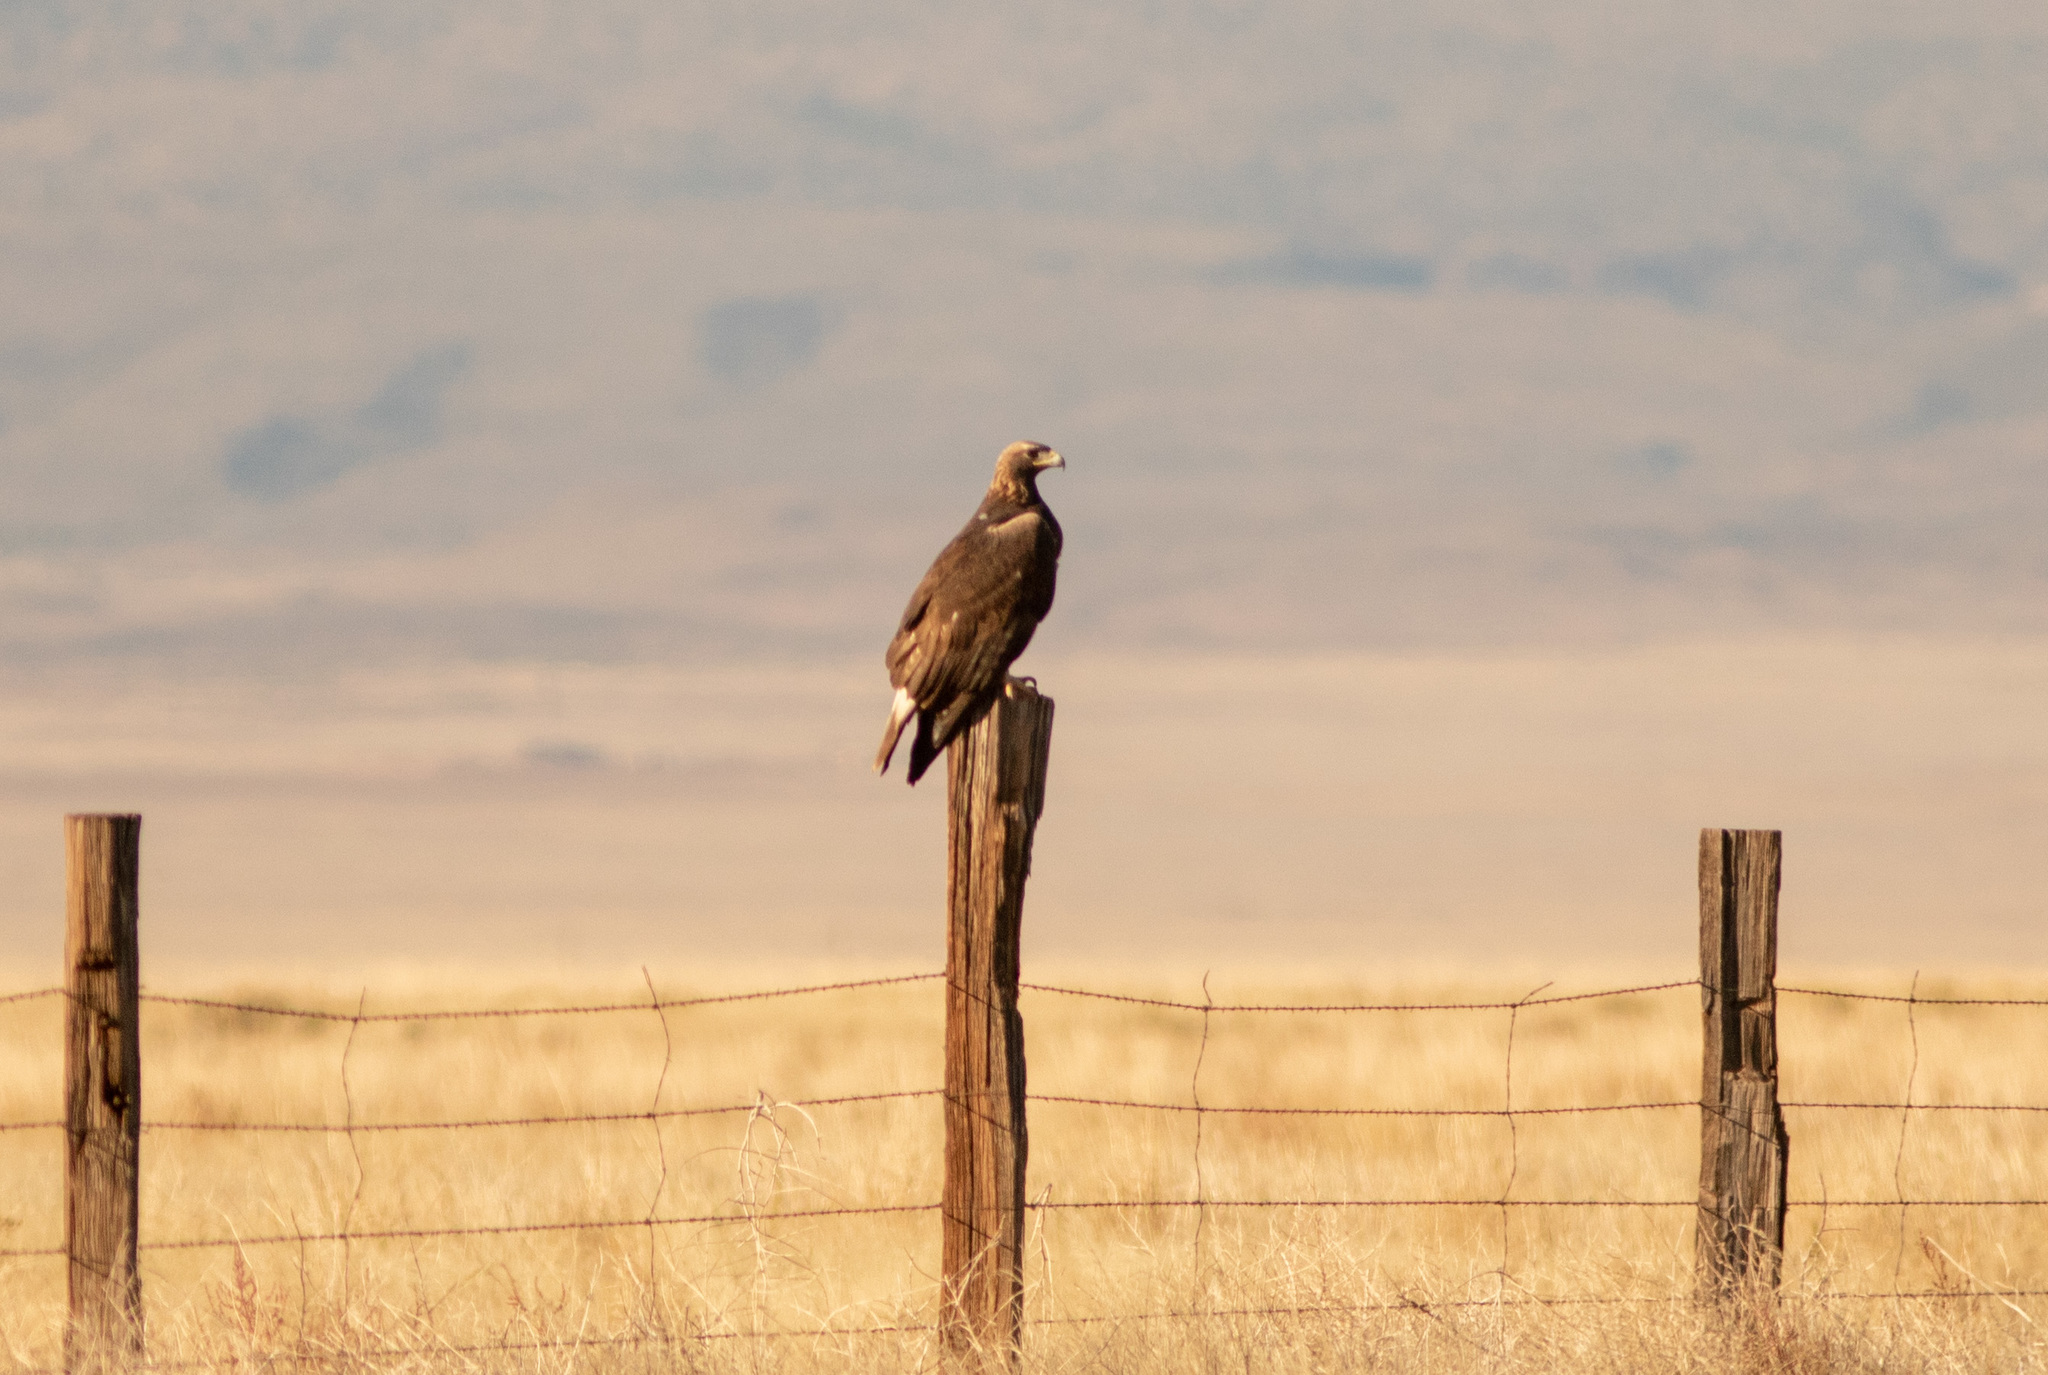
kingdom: Animalia
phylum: Chordata
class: Aves
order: Accipitriformes
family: Accipitridae
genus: Aquila
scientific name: Aquila chrysaetos
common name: Golden eagle
